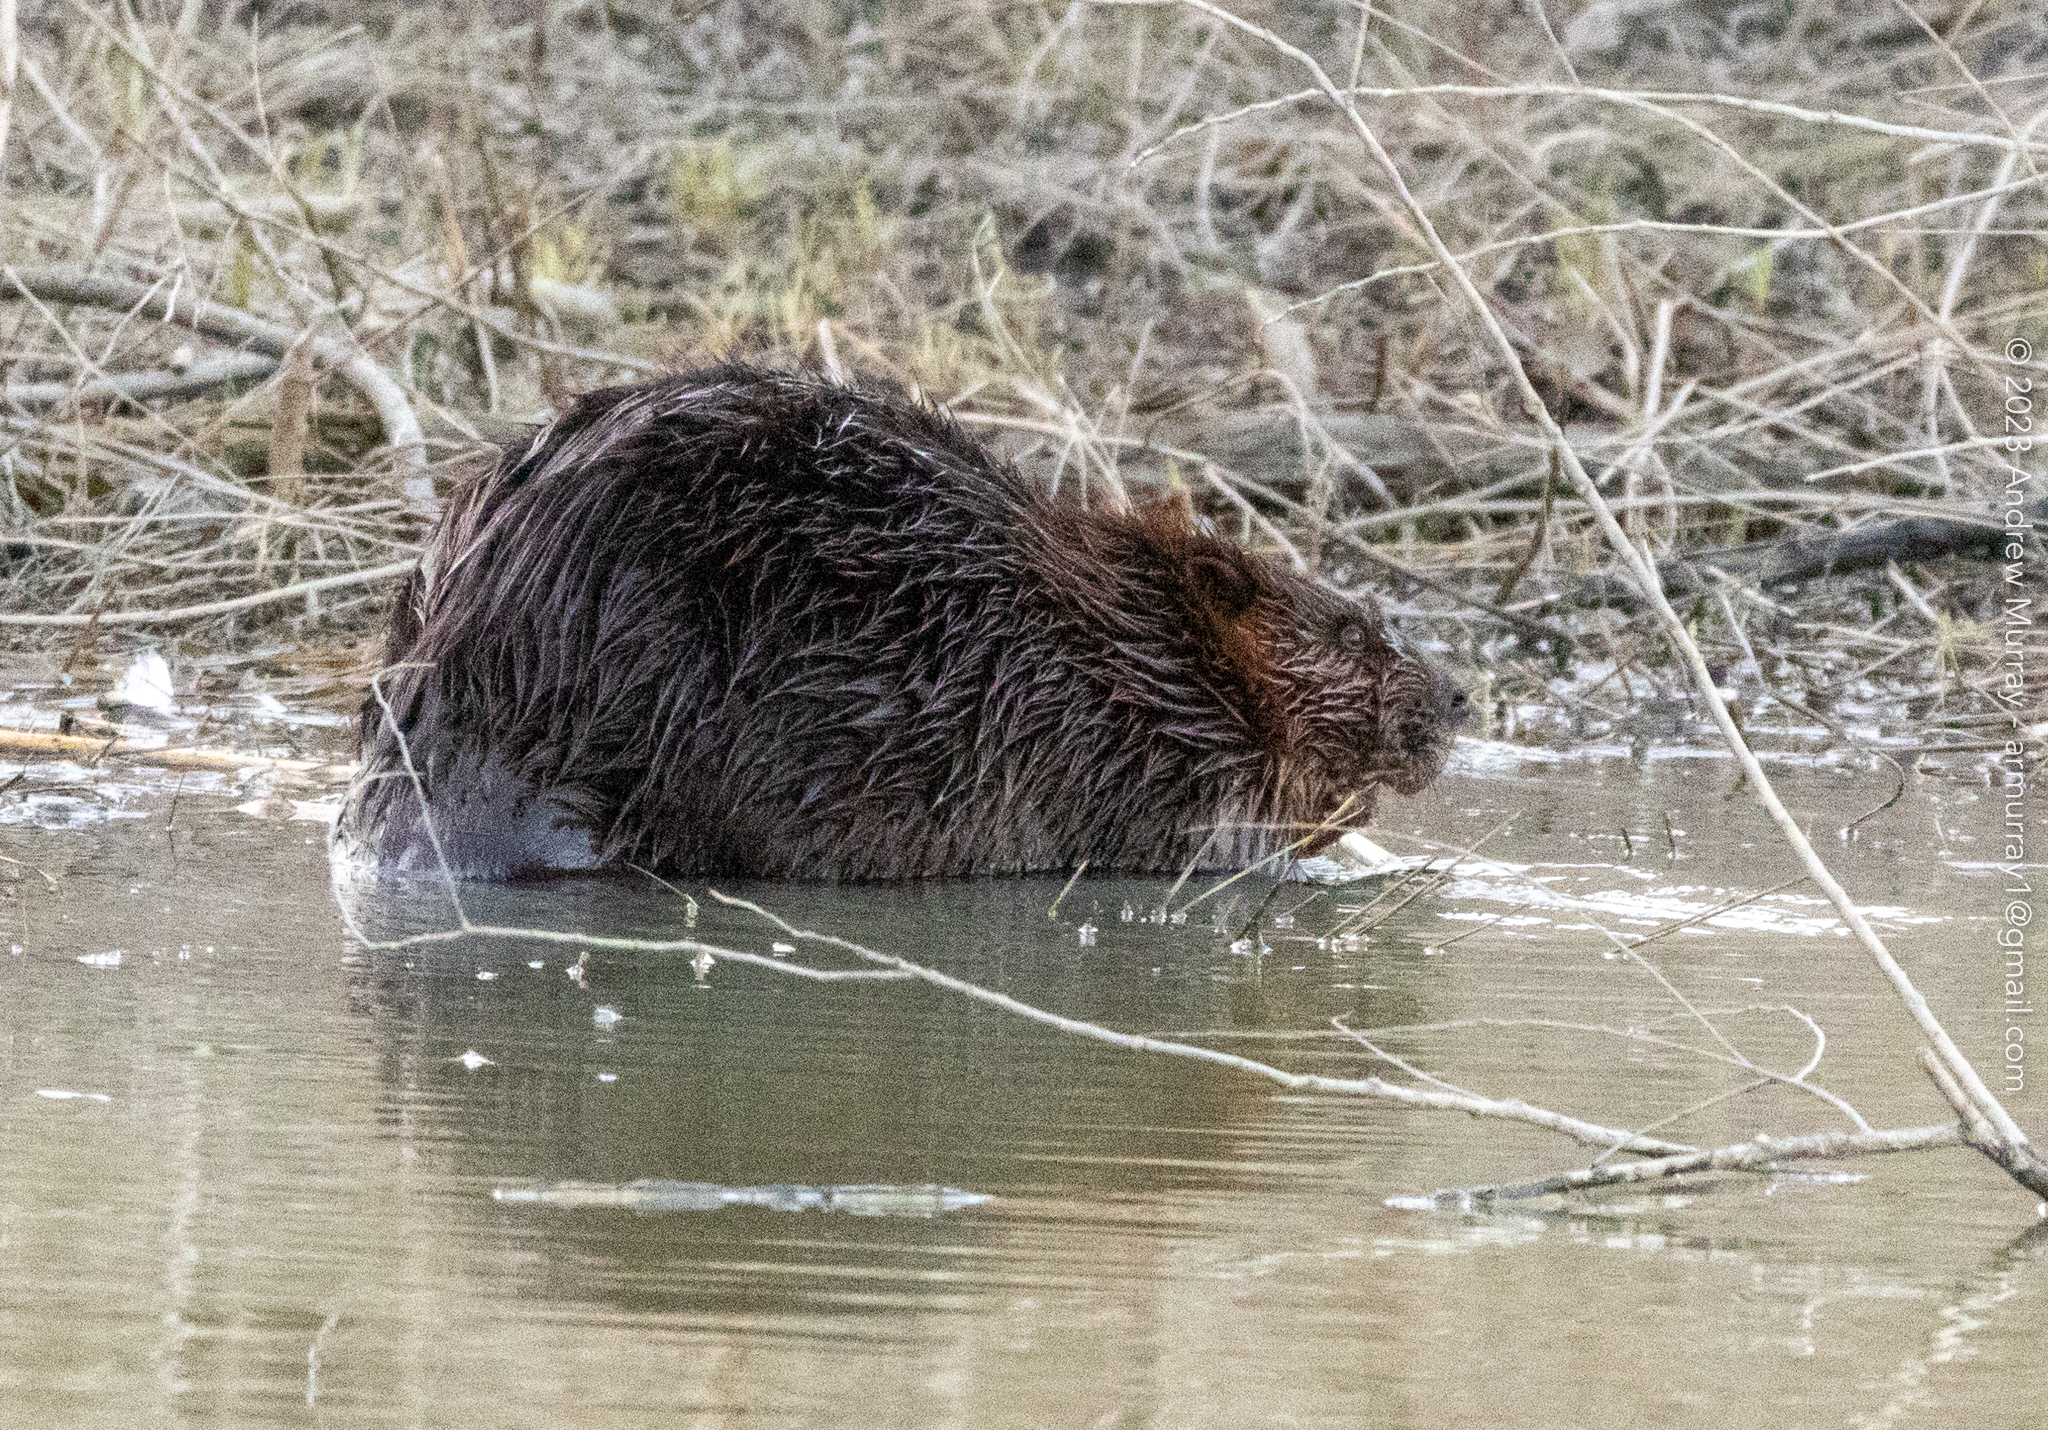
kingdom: Animalia
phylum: Chordata
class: Mammalia
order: Rodentia
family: Castoridae
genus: Castor
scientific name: Castor canadensis
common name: American beaver
